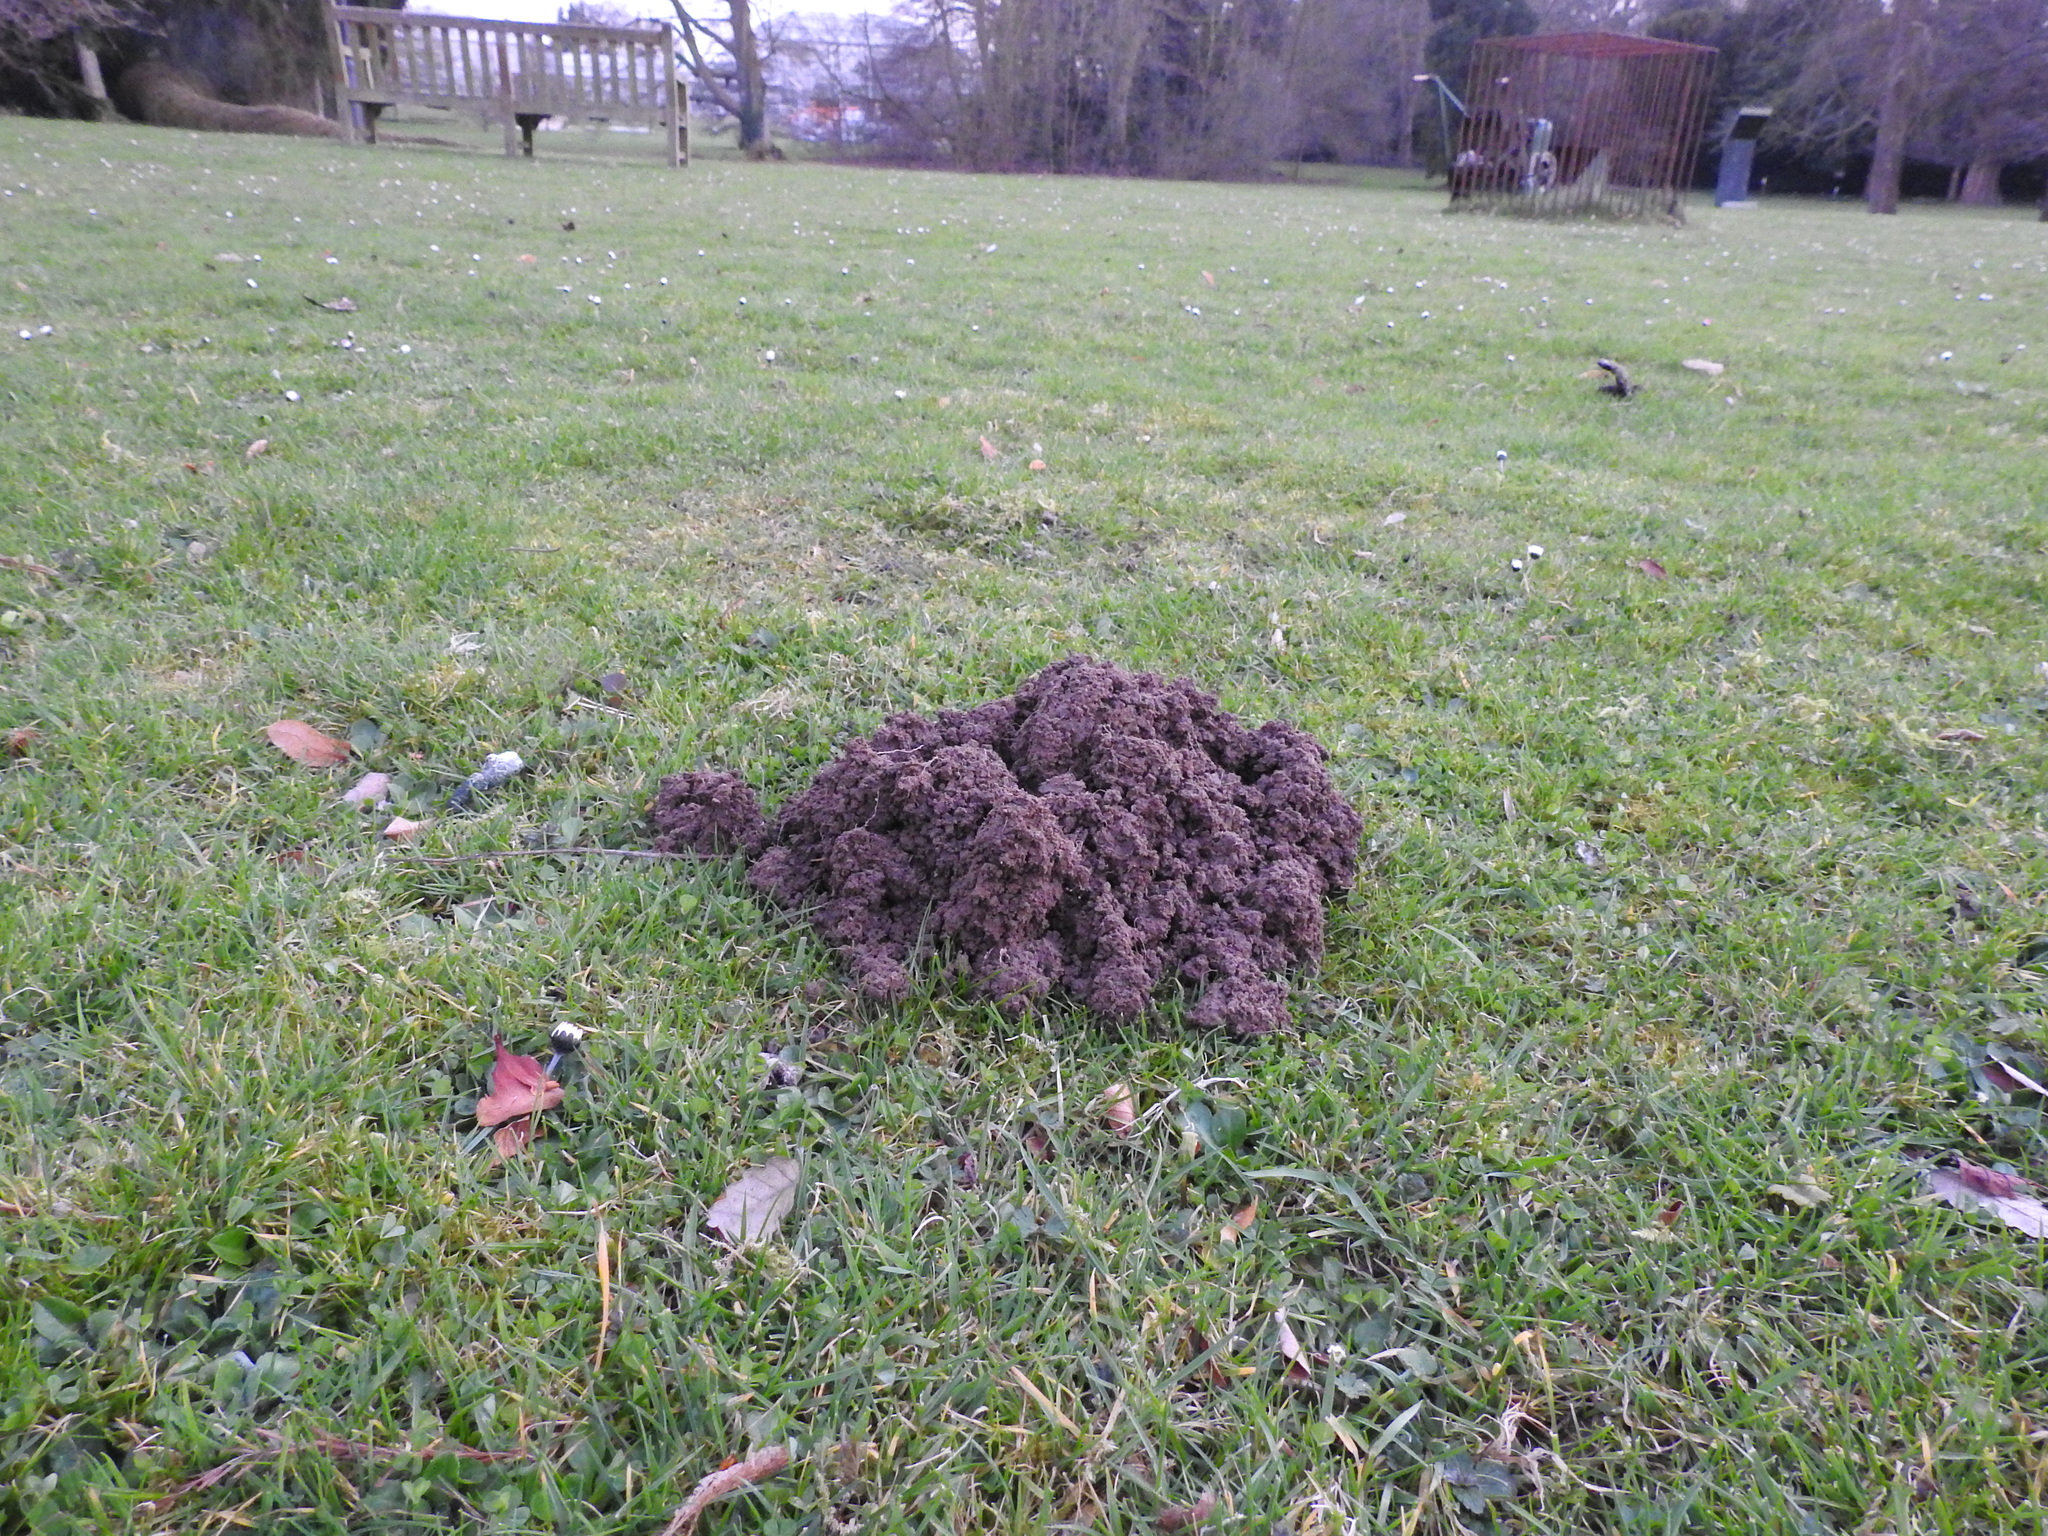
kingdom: Animalia
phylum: Chordata
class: Mammalia
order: Soricomorpha
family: Talpidae
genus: Talpa
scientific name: Talpa europaea
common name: European mole
